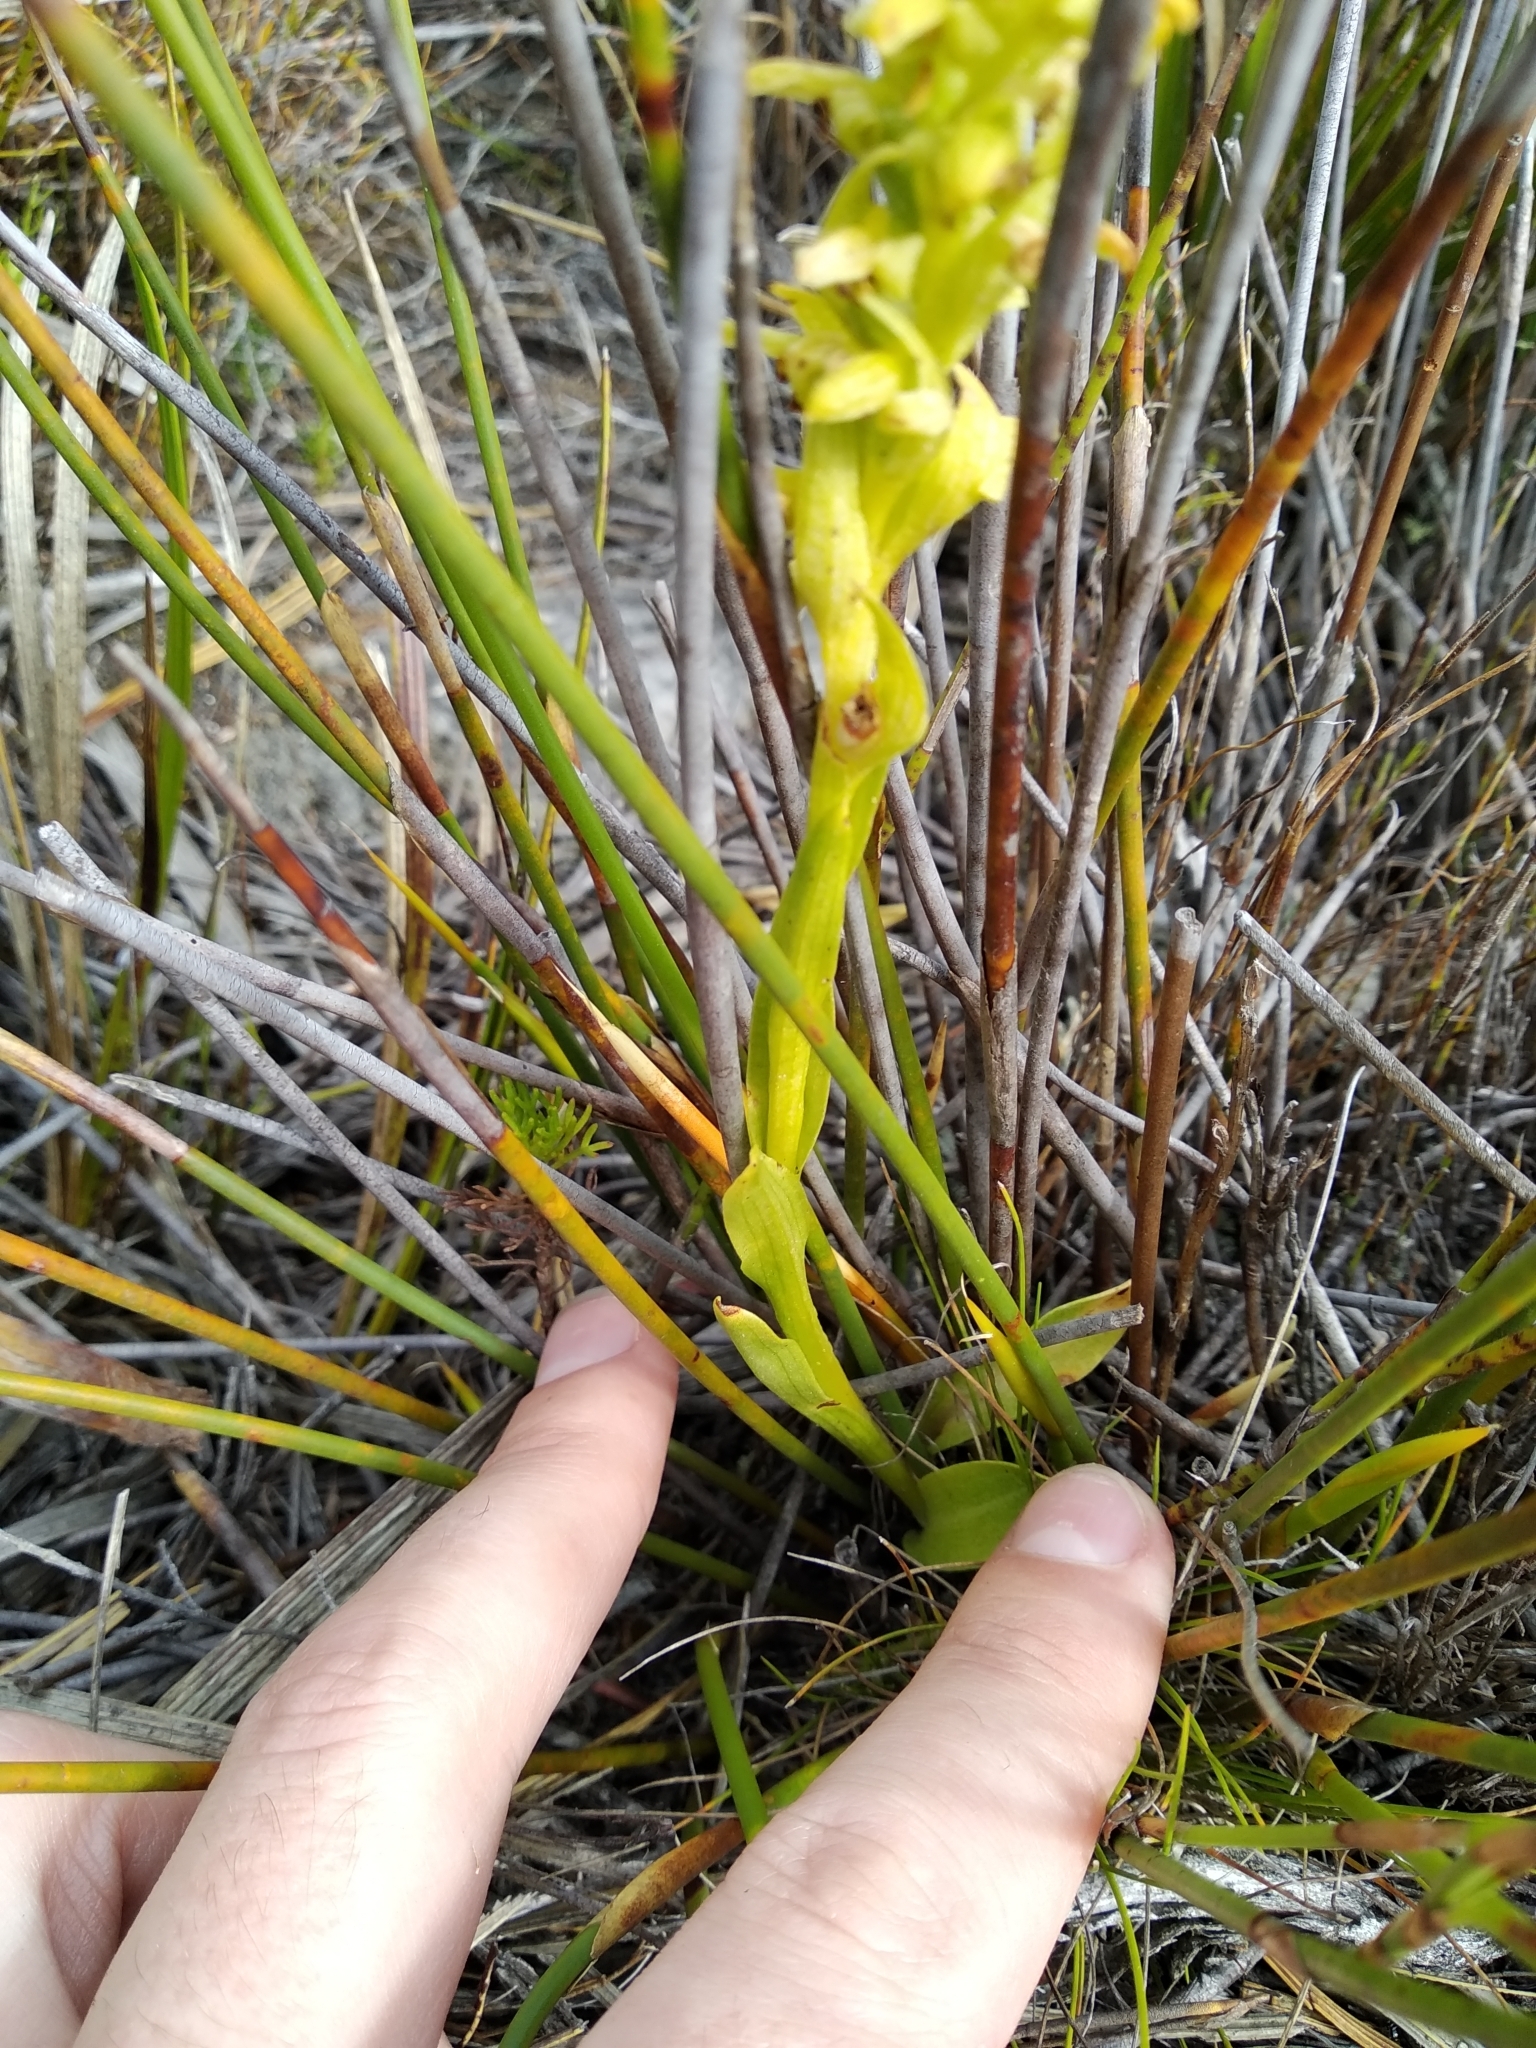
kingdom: Plantae
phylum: Tracheophyta
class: Liliopsida
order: Asparagales
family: Orchidaceae
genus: Disa
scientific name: Disa cylindrica
